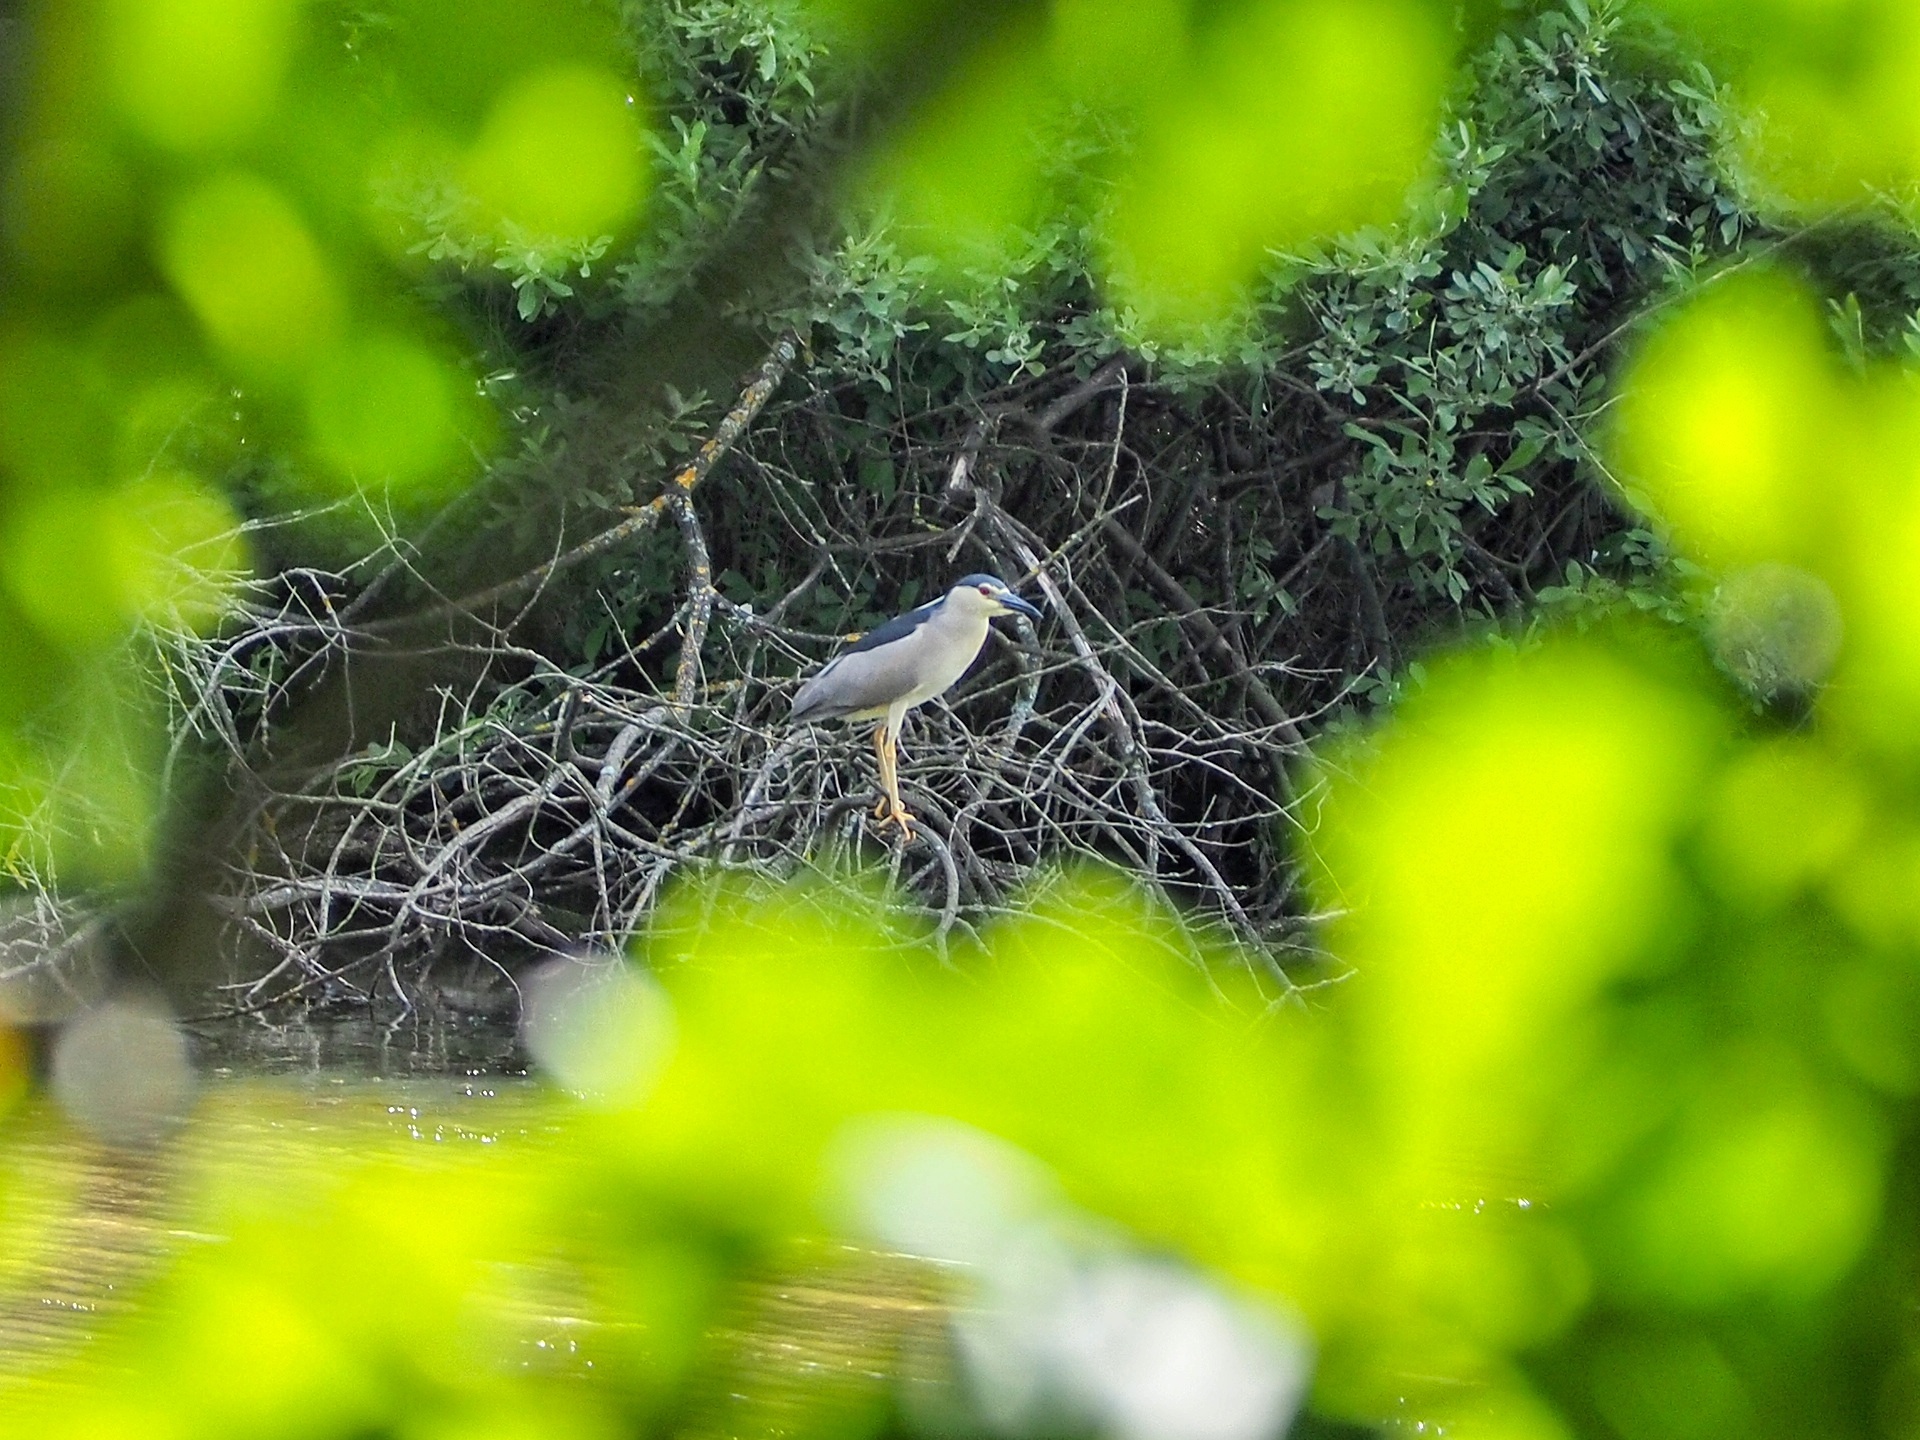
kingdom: Animalia
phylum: Chordata
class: Aves
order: Pelecaniformes
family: Ardeidae
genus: Nycticorax
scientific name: Nycticorax nycticorax
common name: Black-crowned night heron
